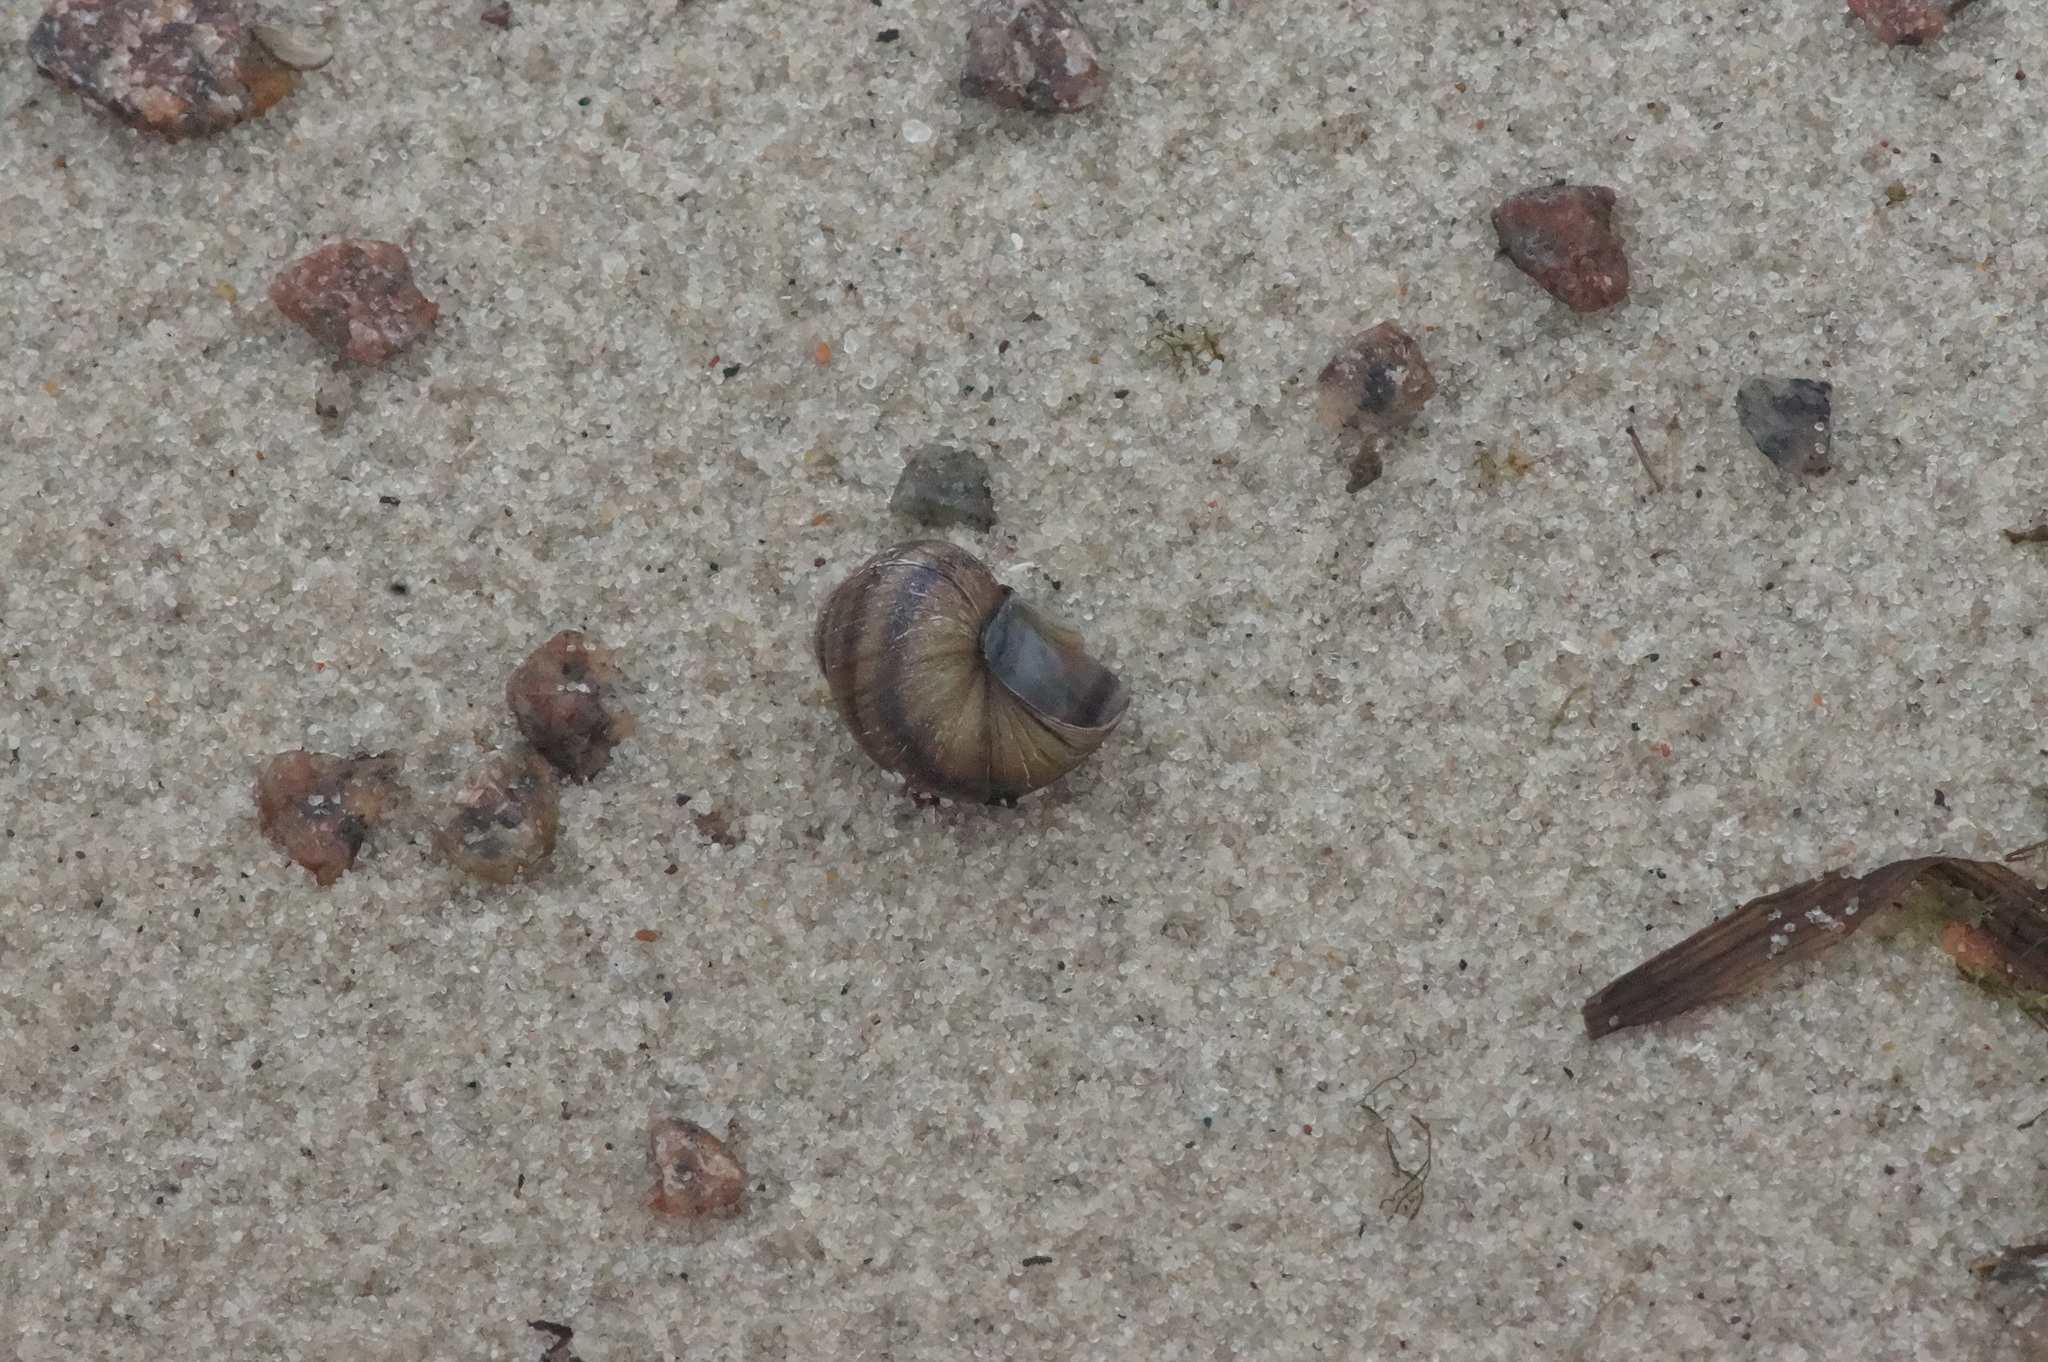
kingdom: Animalia
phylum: Mollusca
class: Gastropoda
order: Architaenioglossa
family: Viviparidae
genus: Viviparus
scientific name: Viviparus viviparus
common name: River snail
